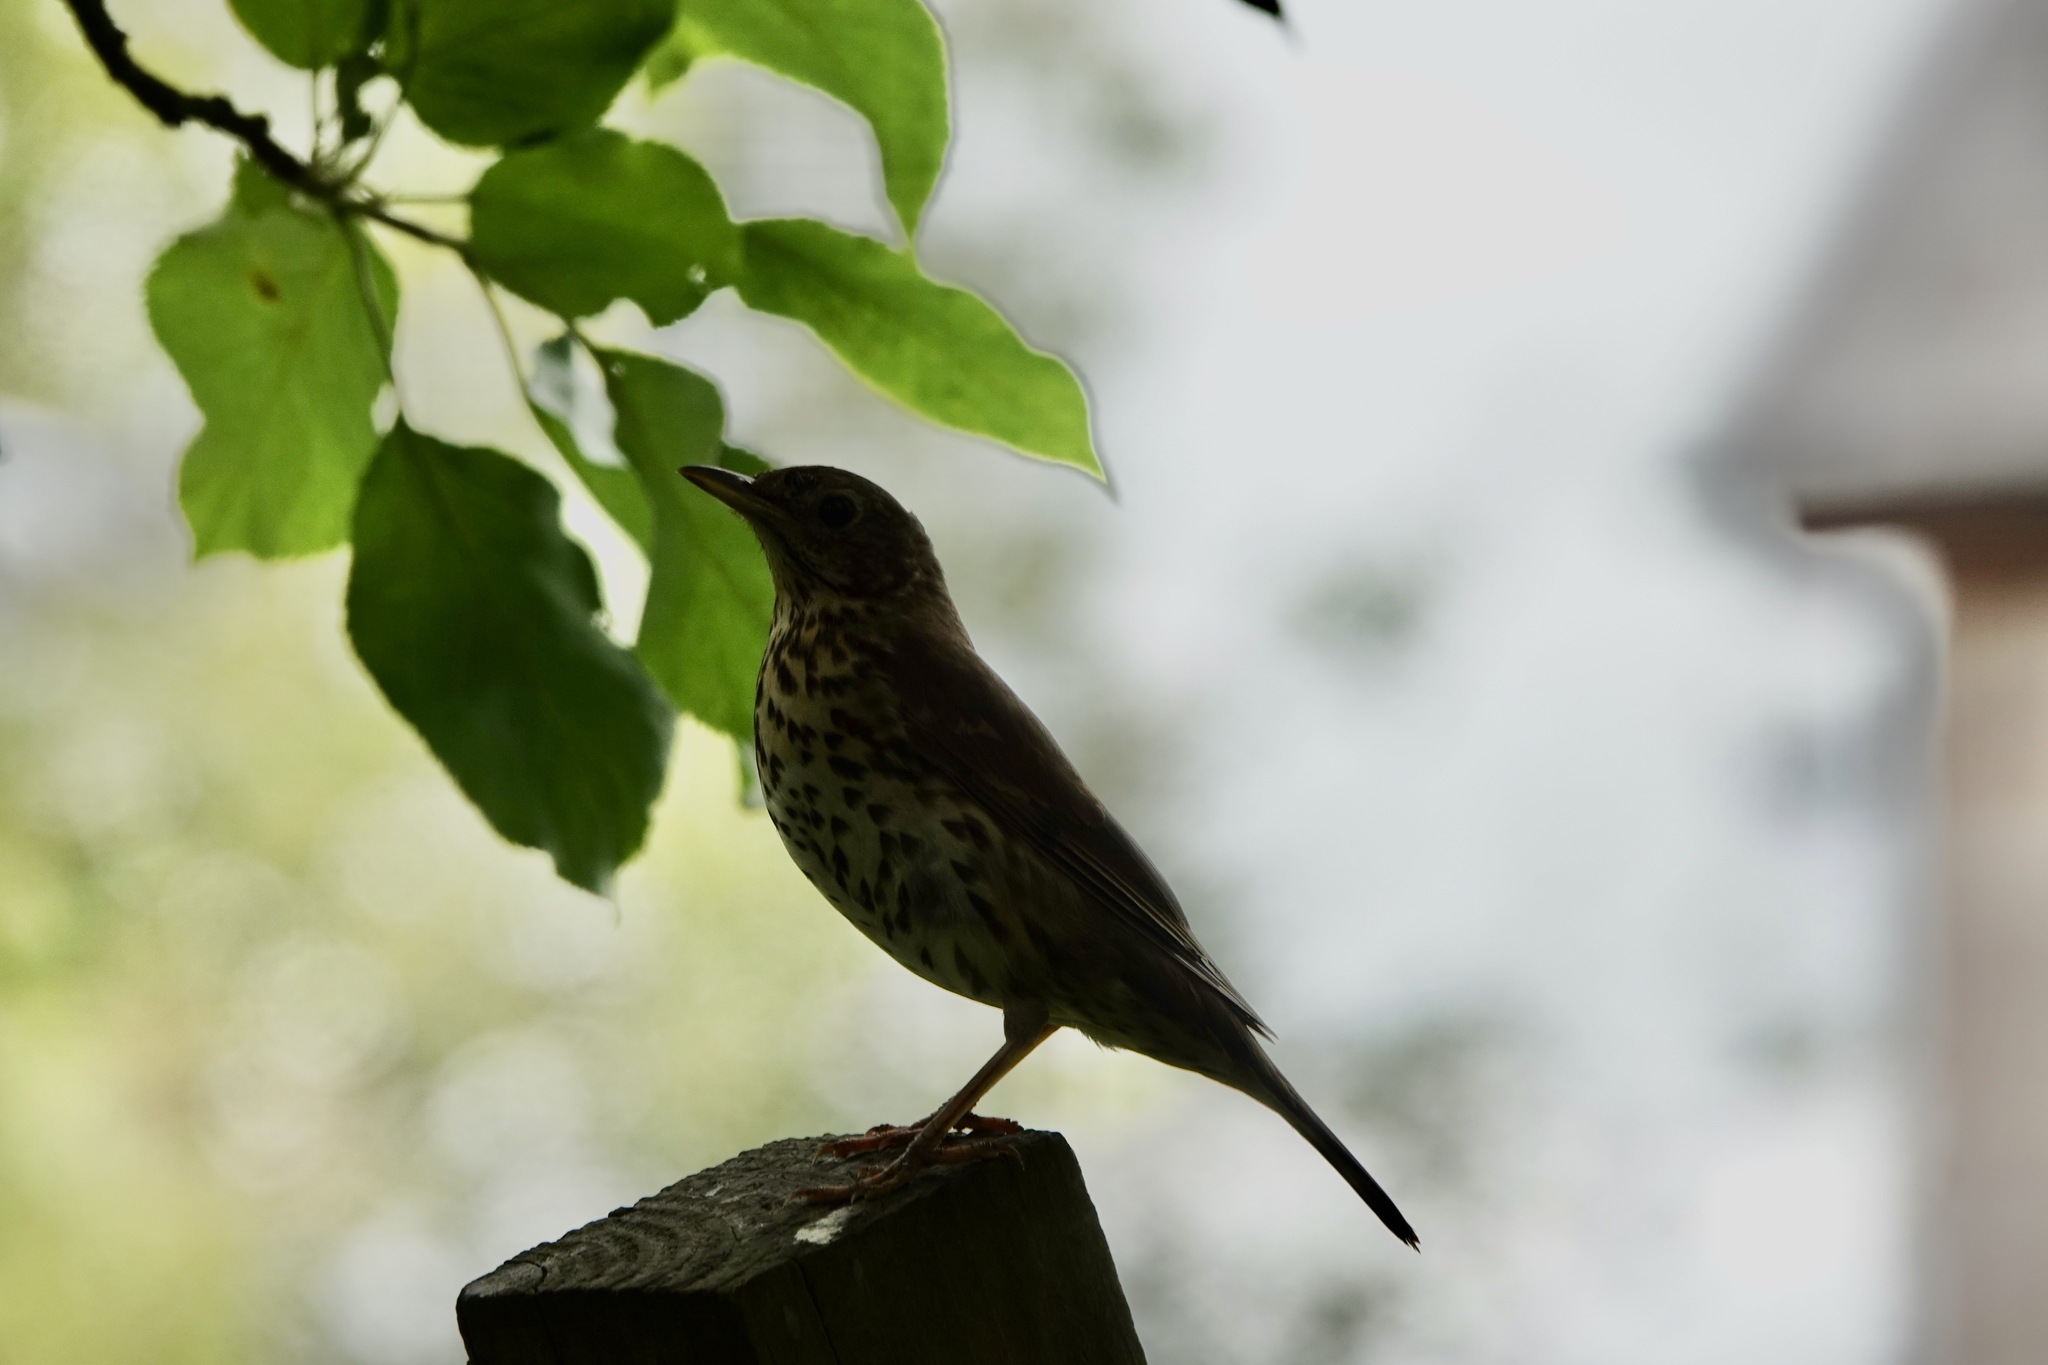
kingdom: Animalia
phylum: Chordata
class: Aves
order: Passeriformes
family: Turdidae
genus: Turdus
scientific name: Turdus philomelos
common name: Song thrush
